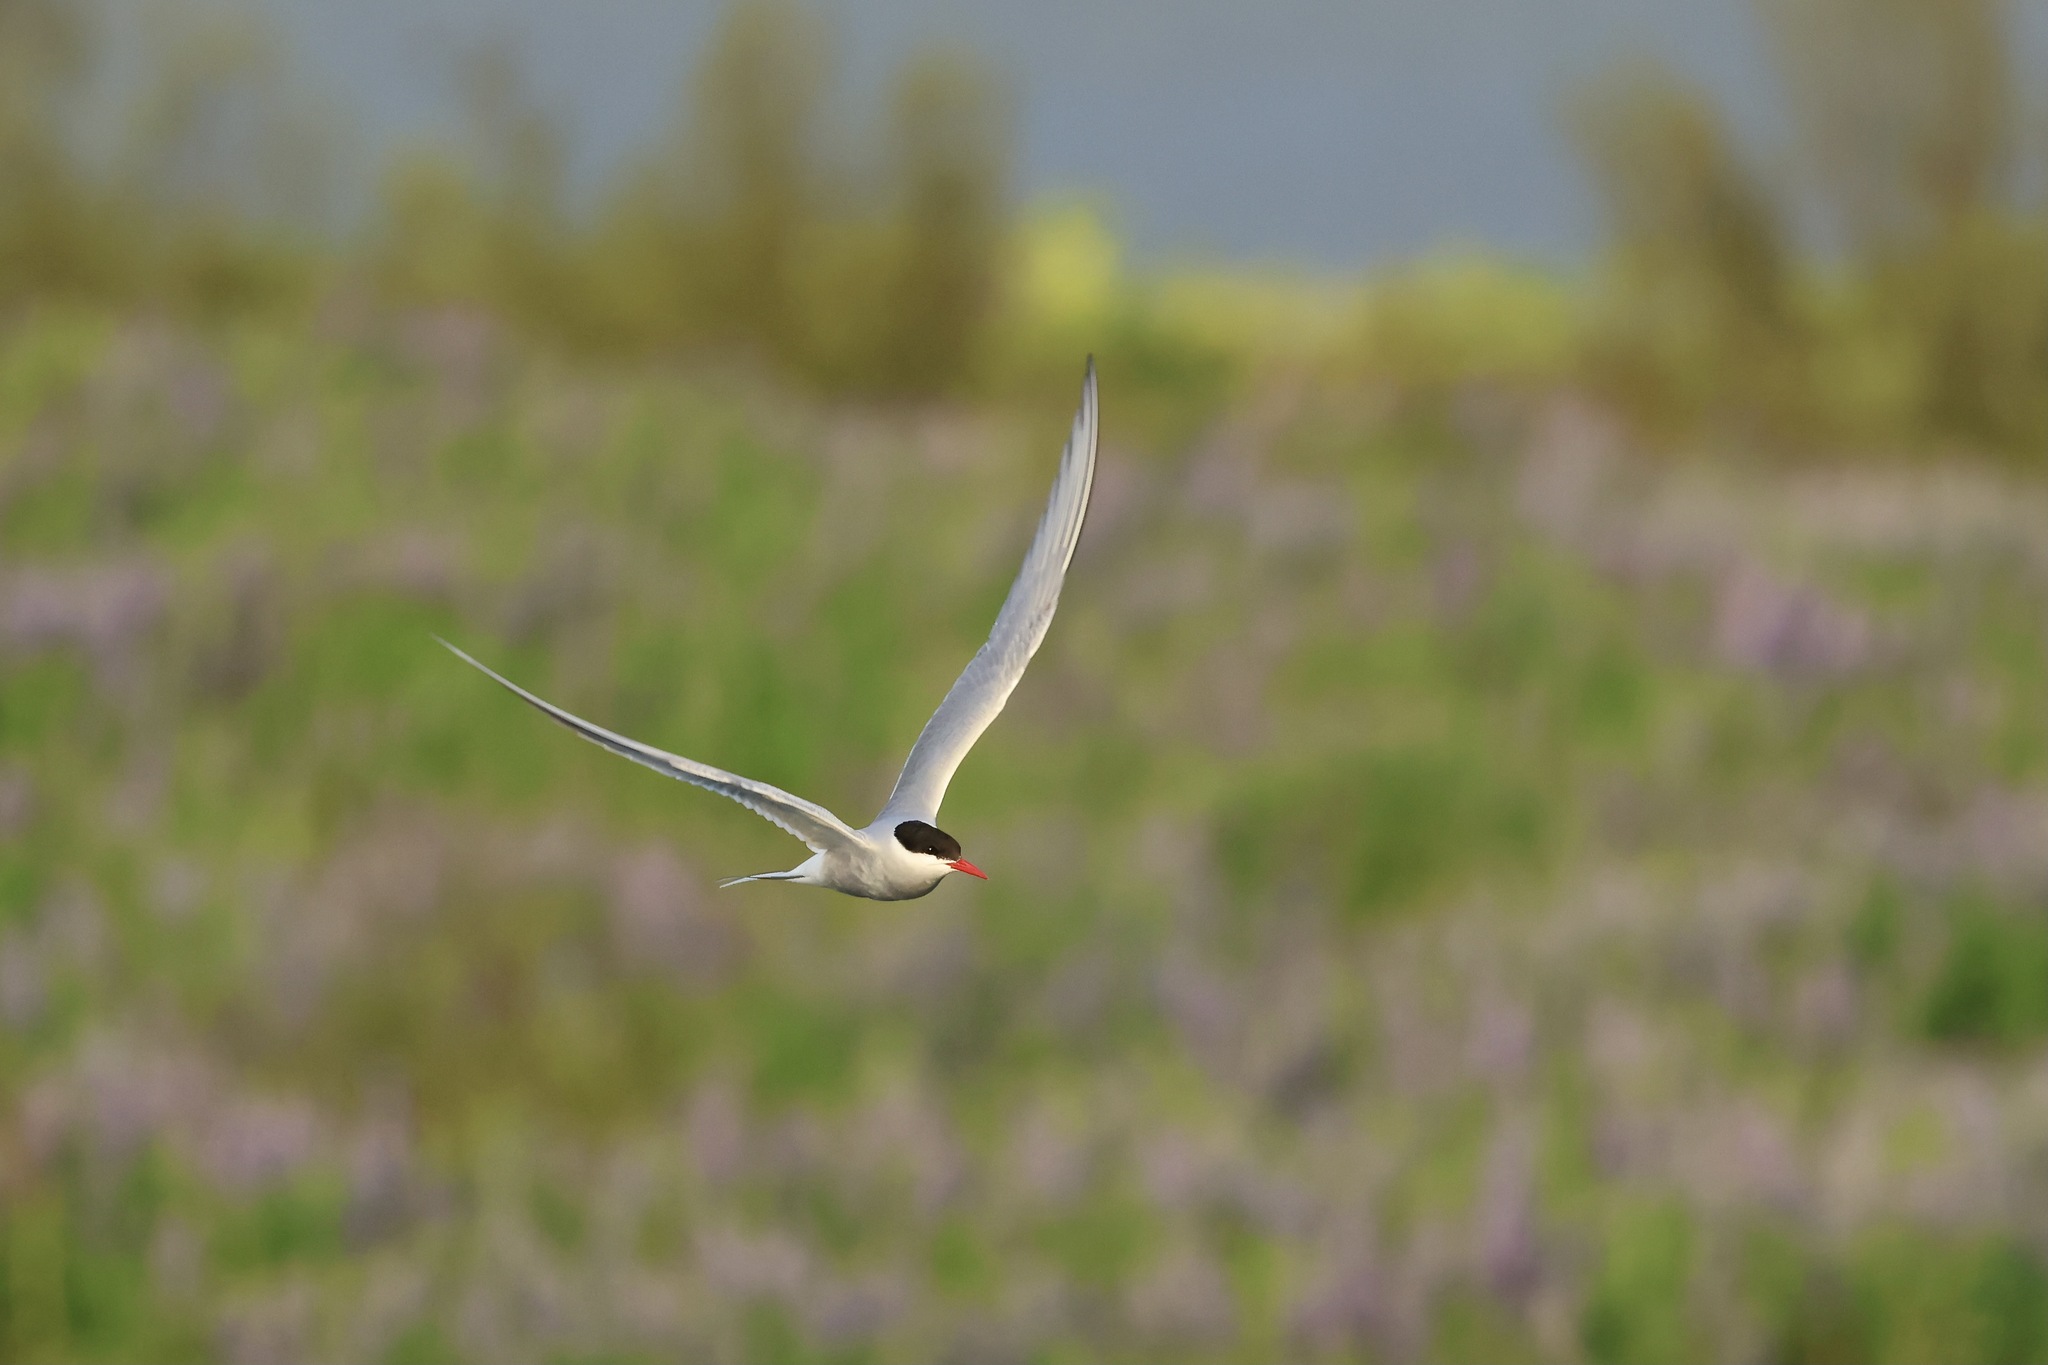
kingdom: Animalia
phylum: Chordata
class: Aves
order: Charadriiformes
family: Laridae
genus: Sterna
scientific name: Sterna paradisaea
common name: Arctic tern
